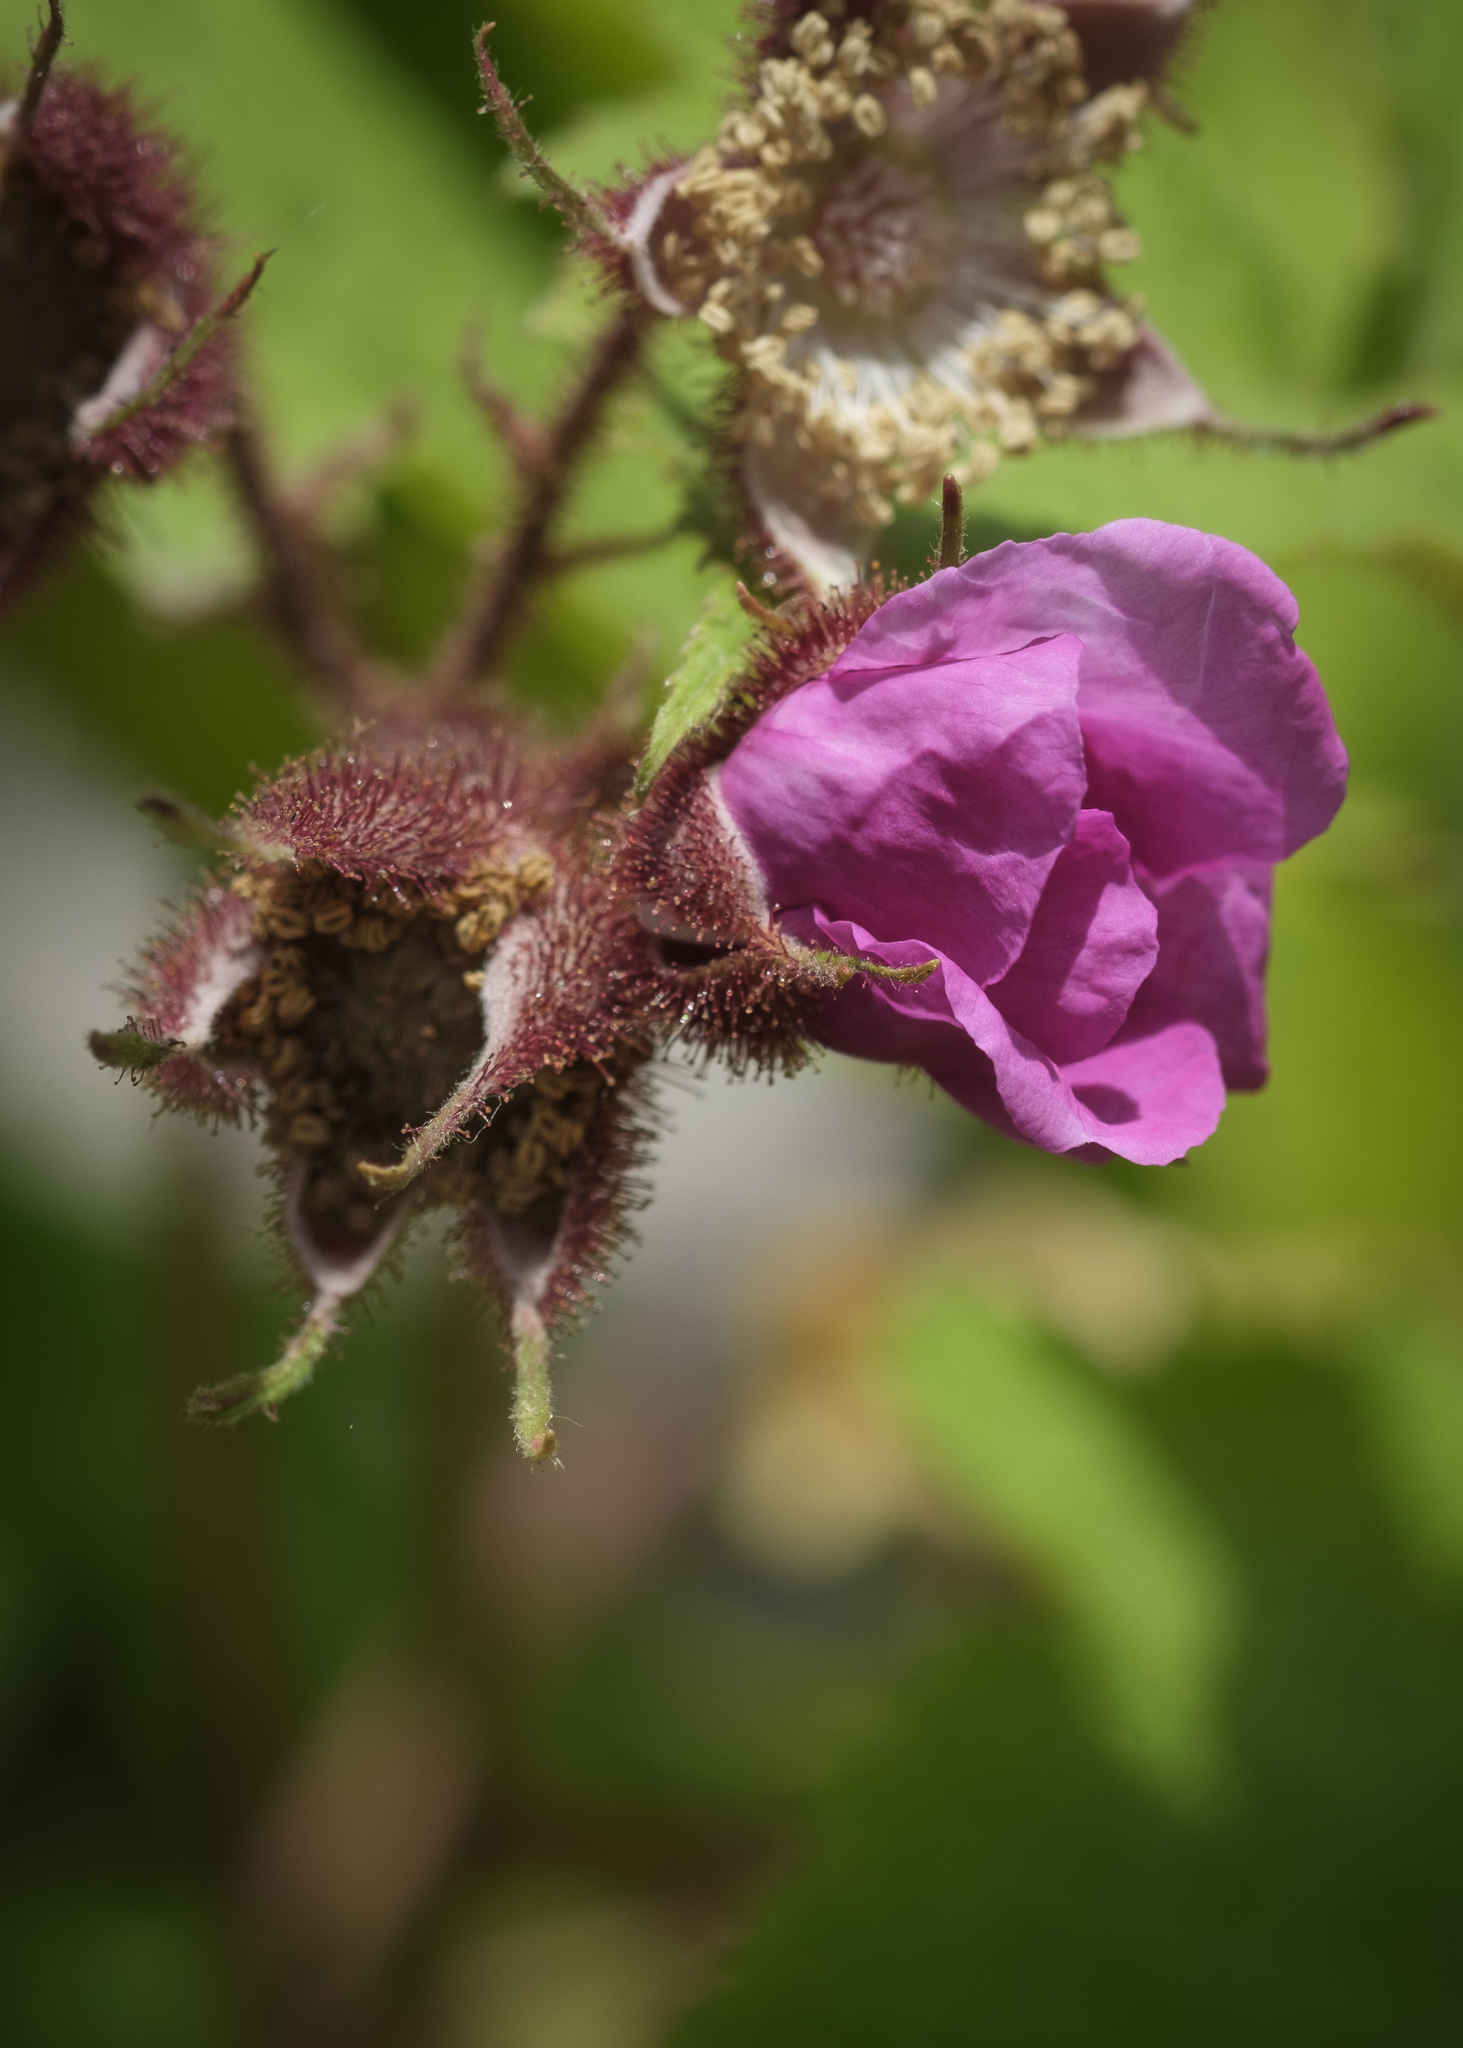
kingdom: Plantae
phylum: Tracheophyta
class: Magnoliopsida
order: Rosales
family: Rosaceae
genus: Rubus
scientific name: Rubus odoratus
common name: Purple-flowered raspberry
